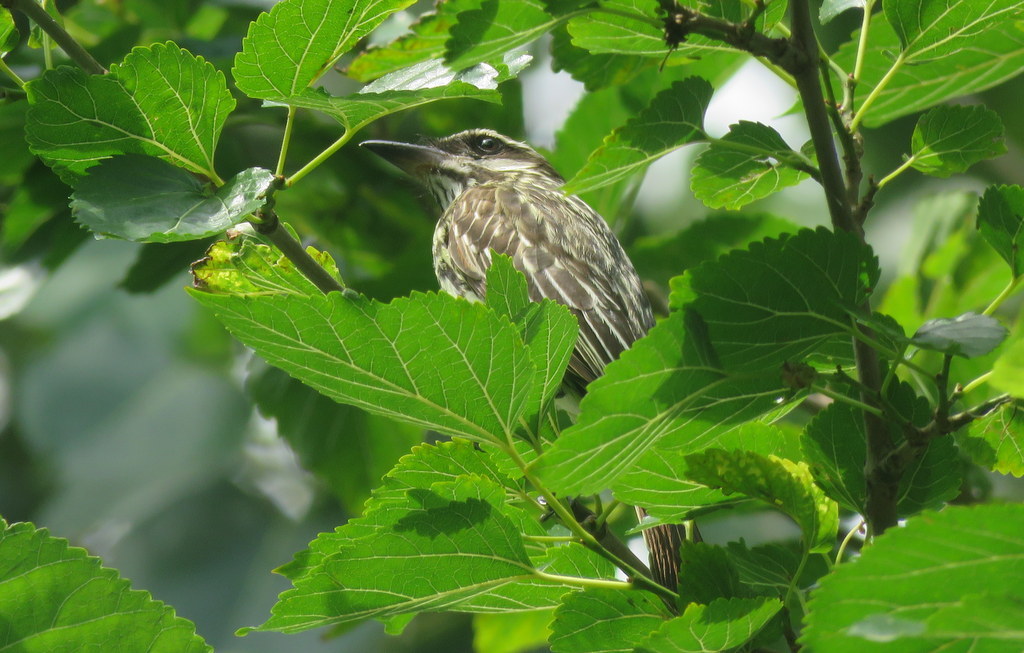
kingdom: Animalia
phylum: Chordata
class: Aves
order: Passeriformes
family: Tyrannidae
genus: Myiodynastes
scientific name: Myiodynastes maculatus
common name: Streaked flycatcher
